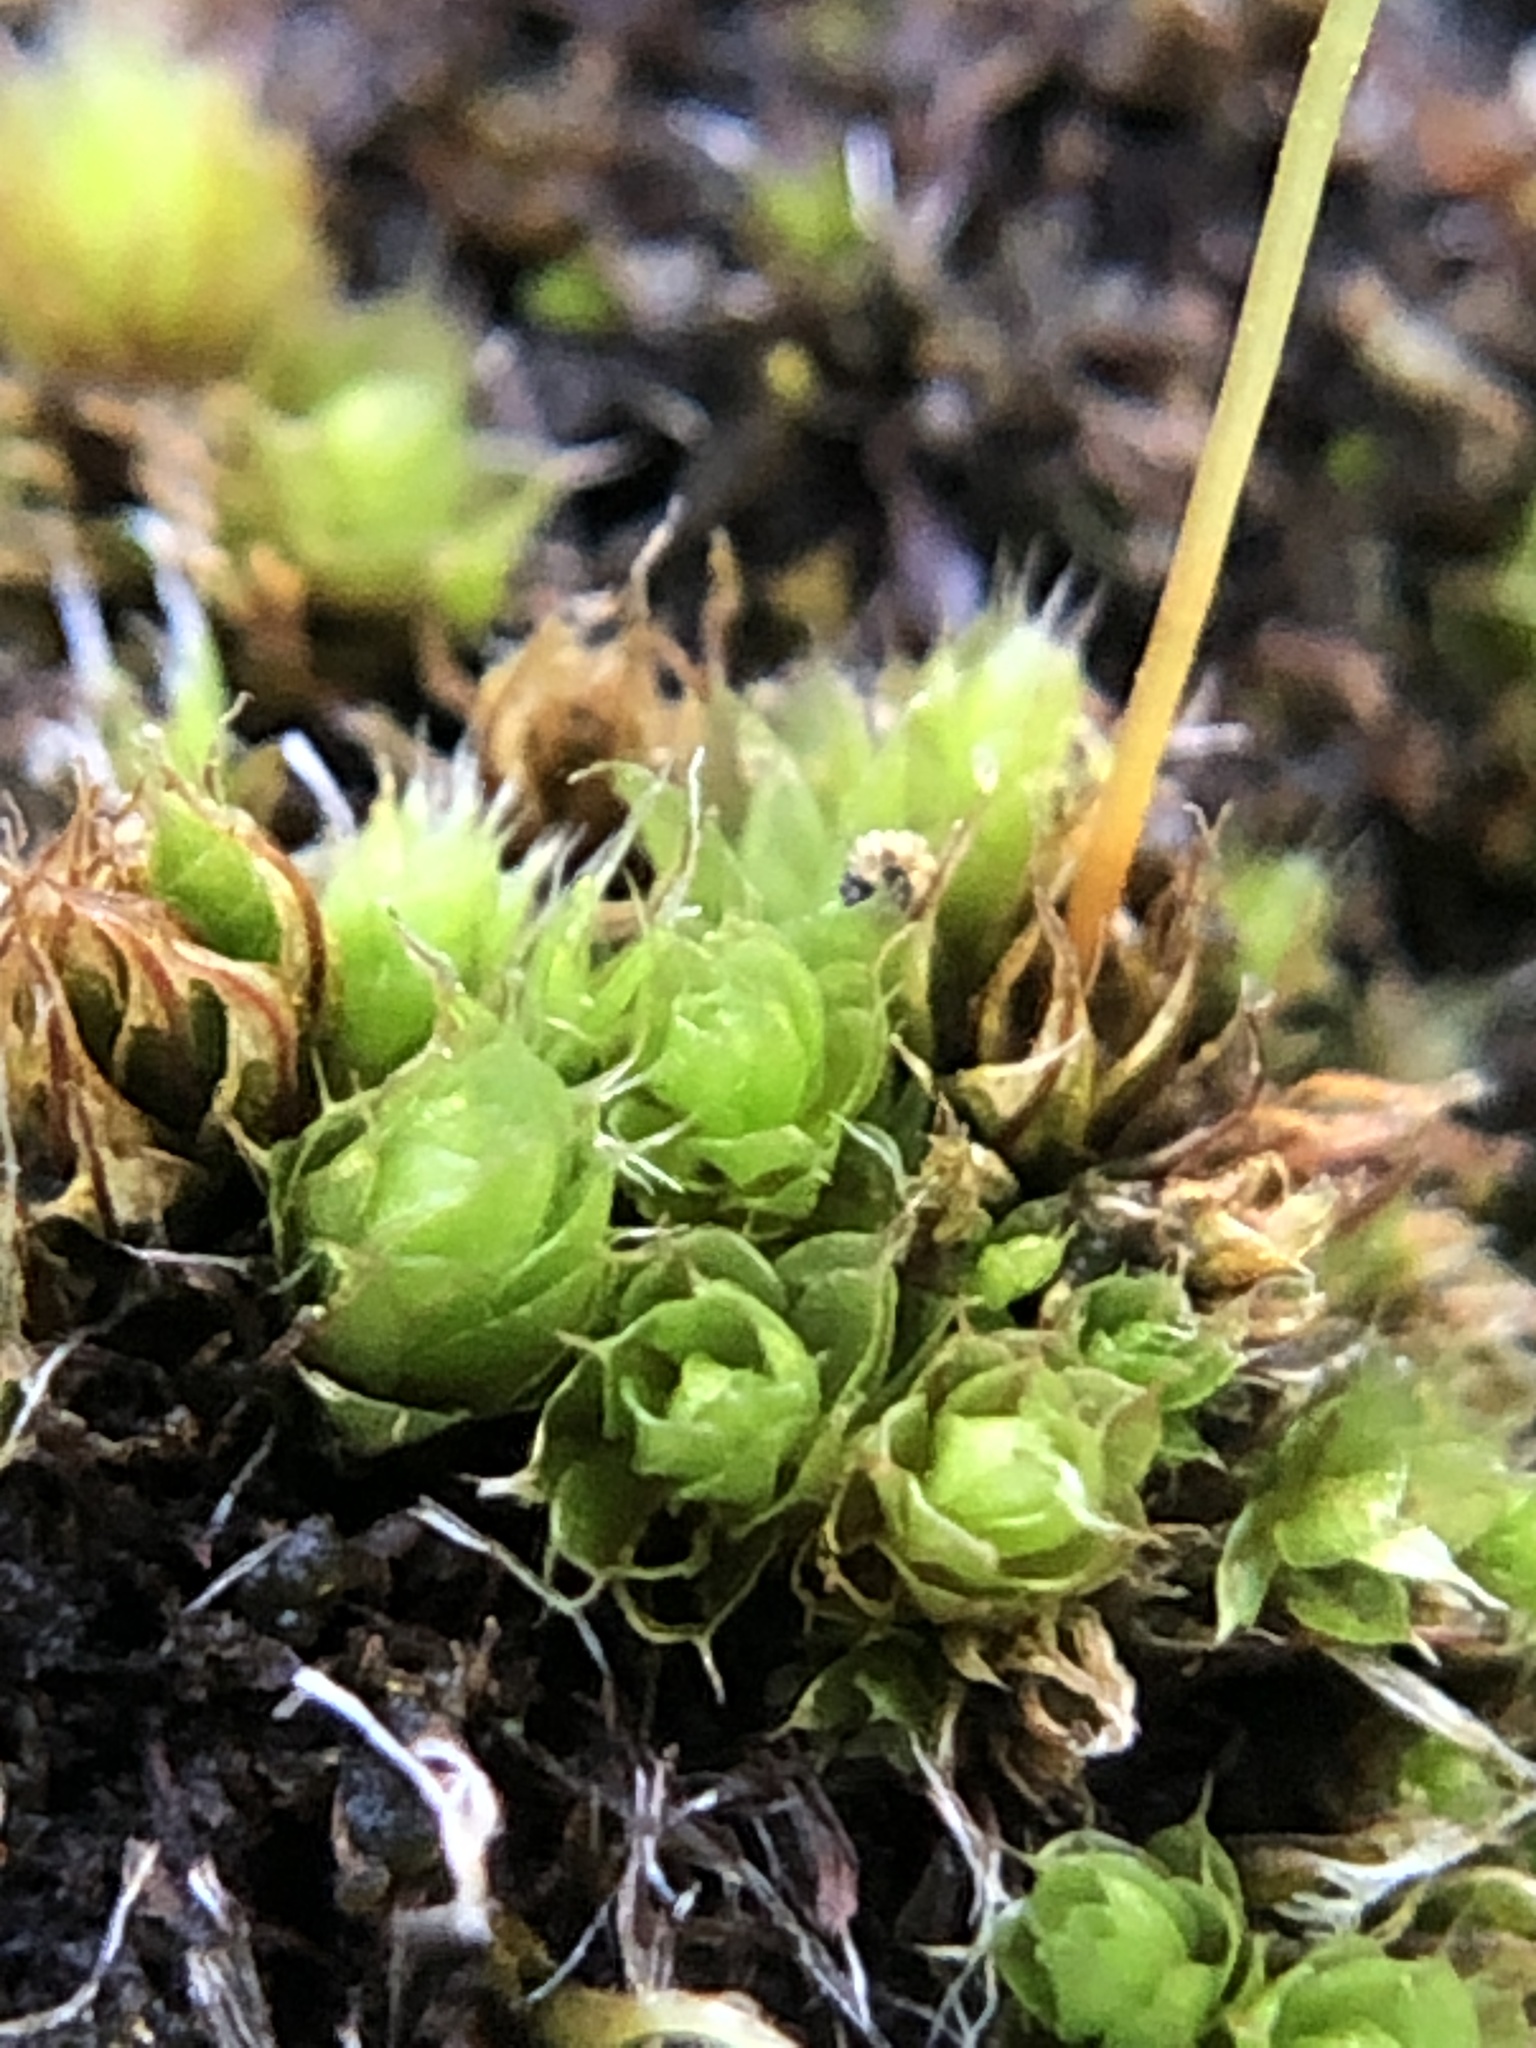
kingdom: Plantae
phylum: Bryophyta
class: Bryopsida
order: Bryales
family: Bryaceae
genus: Rosulabryum
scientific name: Rosulabryum capillare
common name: Capillary thread-moss
